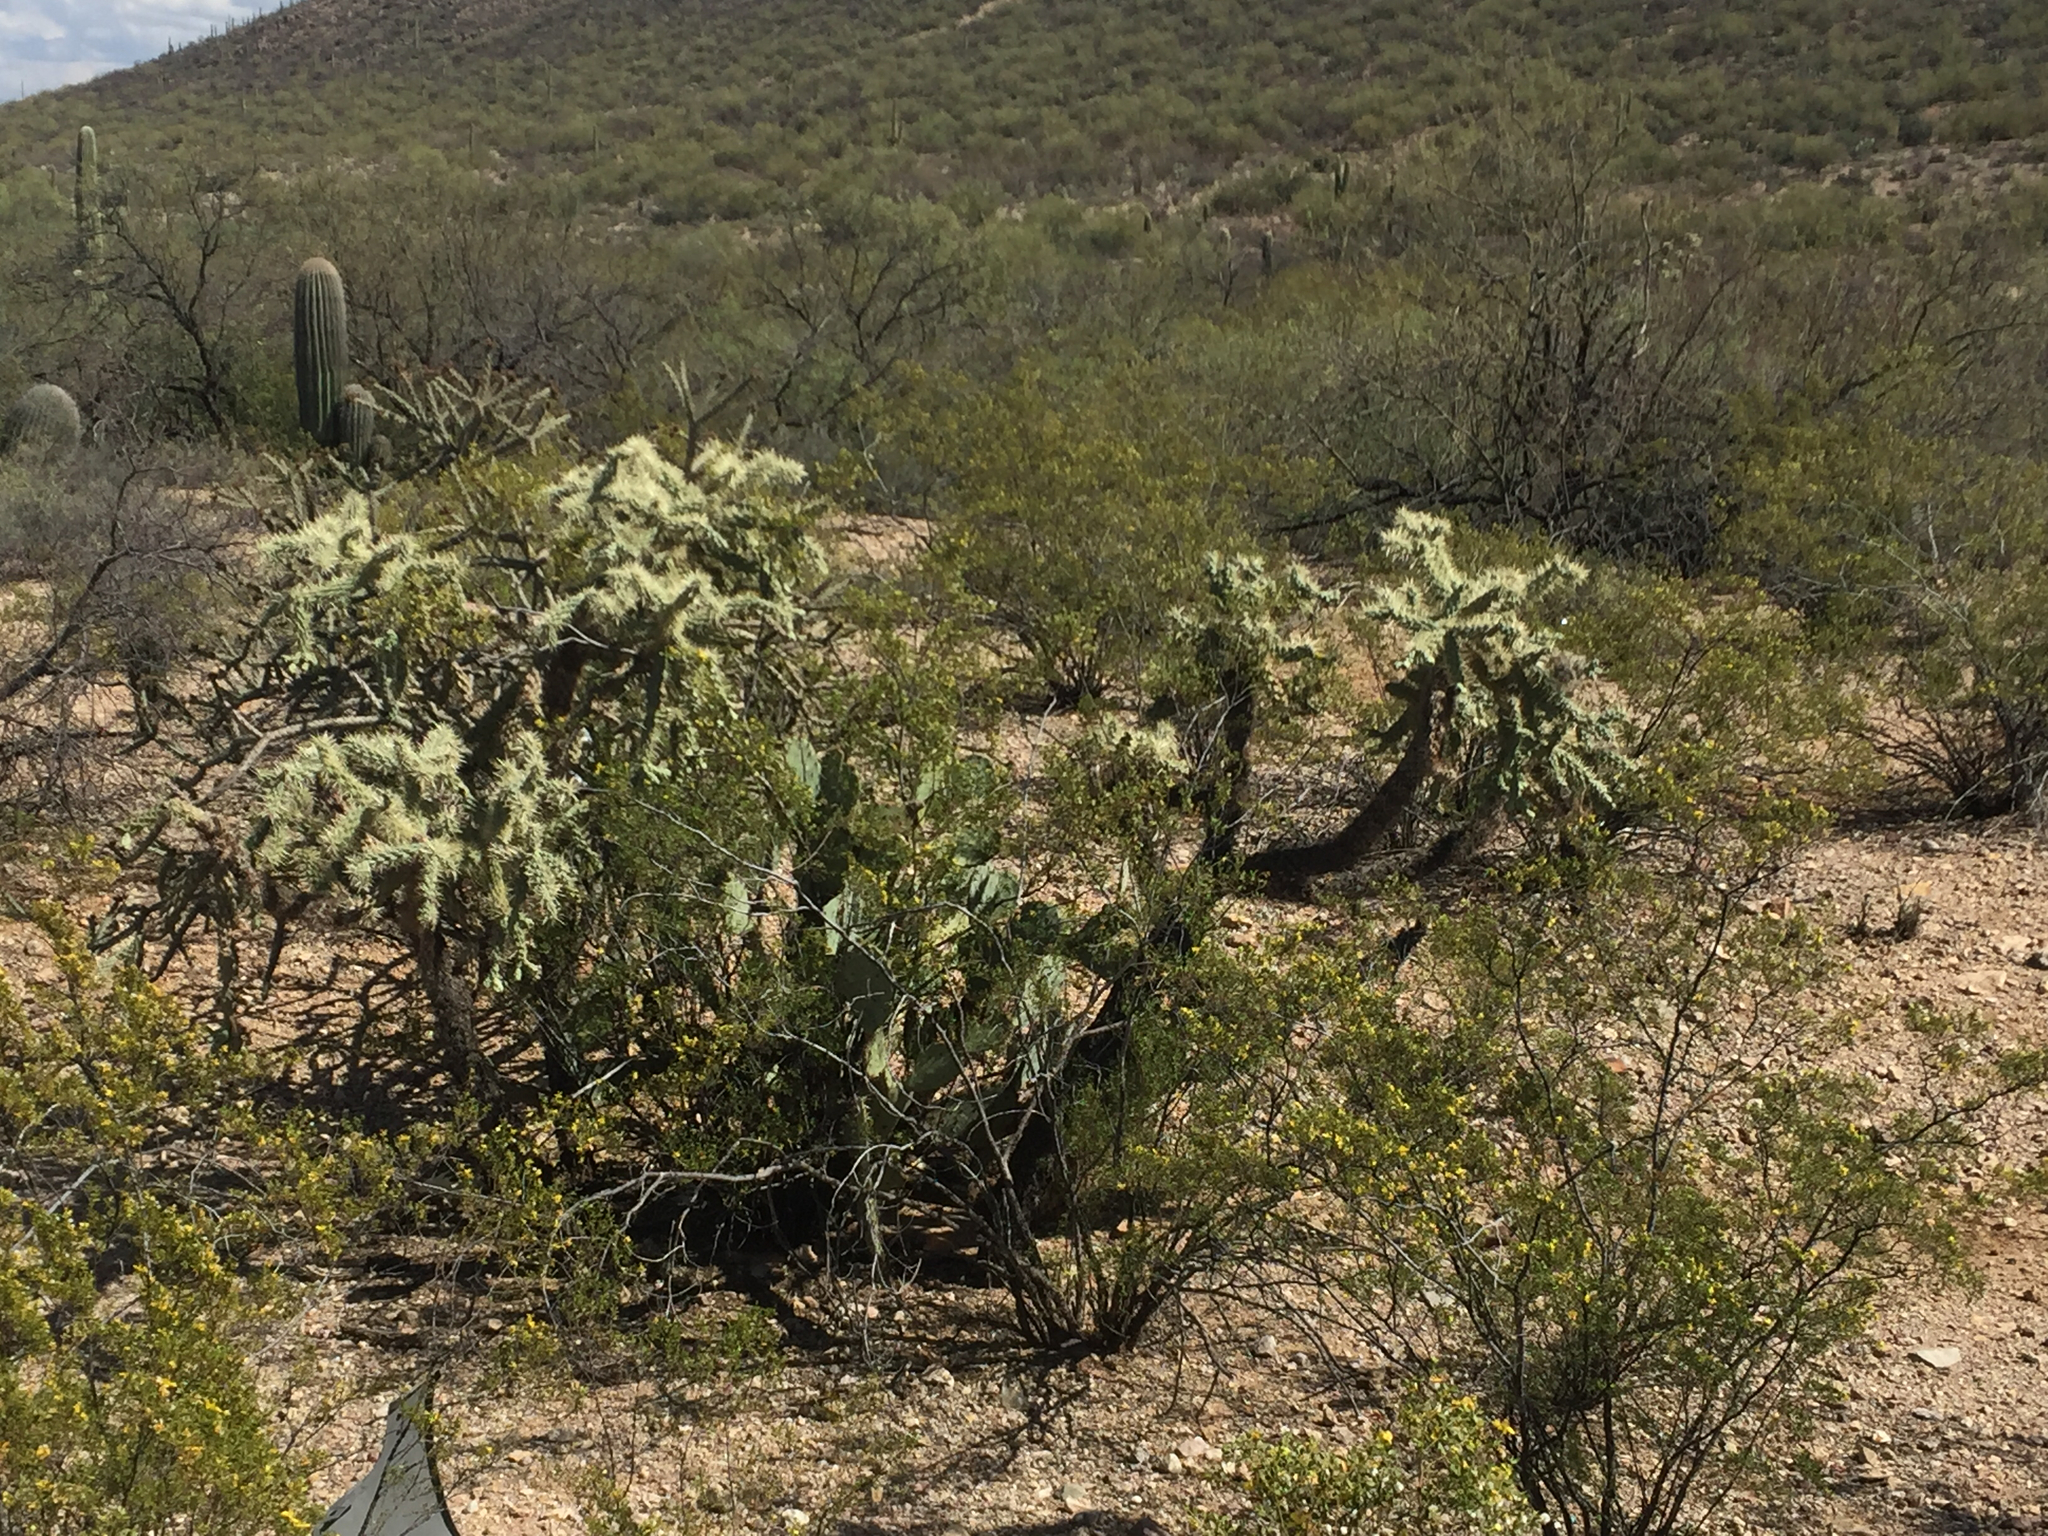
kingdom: Plantae
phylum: Tracheophyta
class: Magnoliopsida
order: Caryophyllales
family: Cactaceae
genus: Cylindropuntia
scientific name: Cylindropuntia fulgida
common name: Jumping cholla
